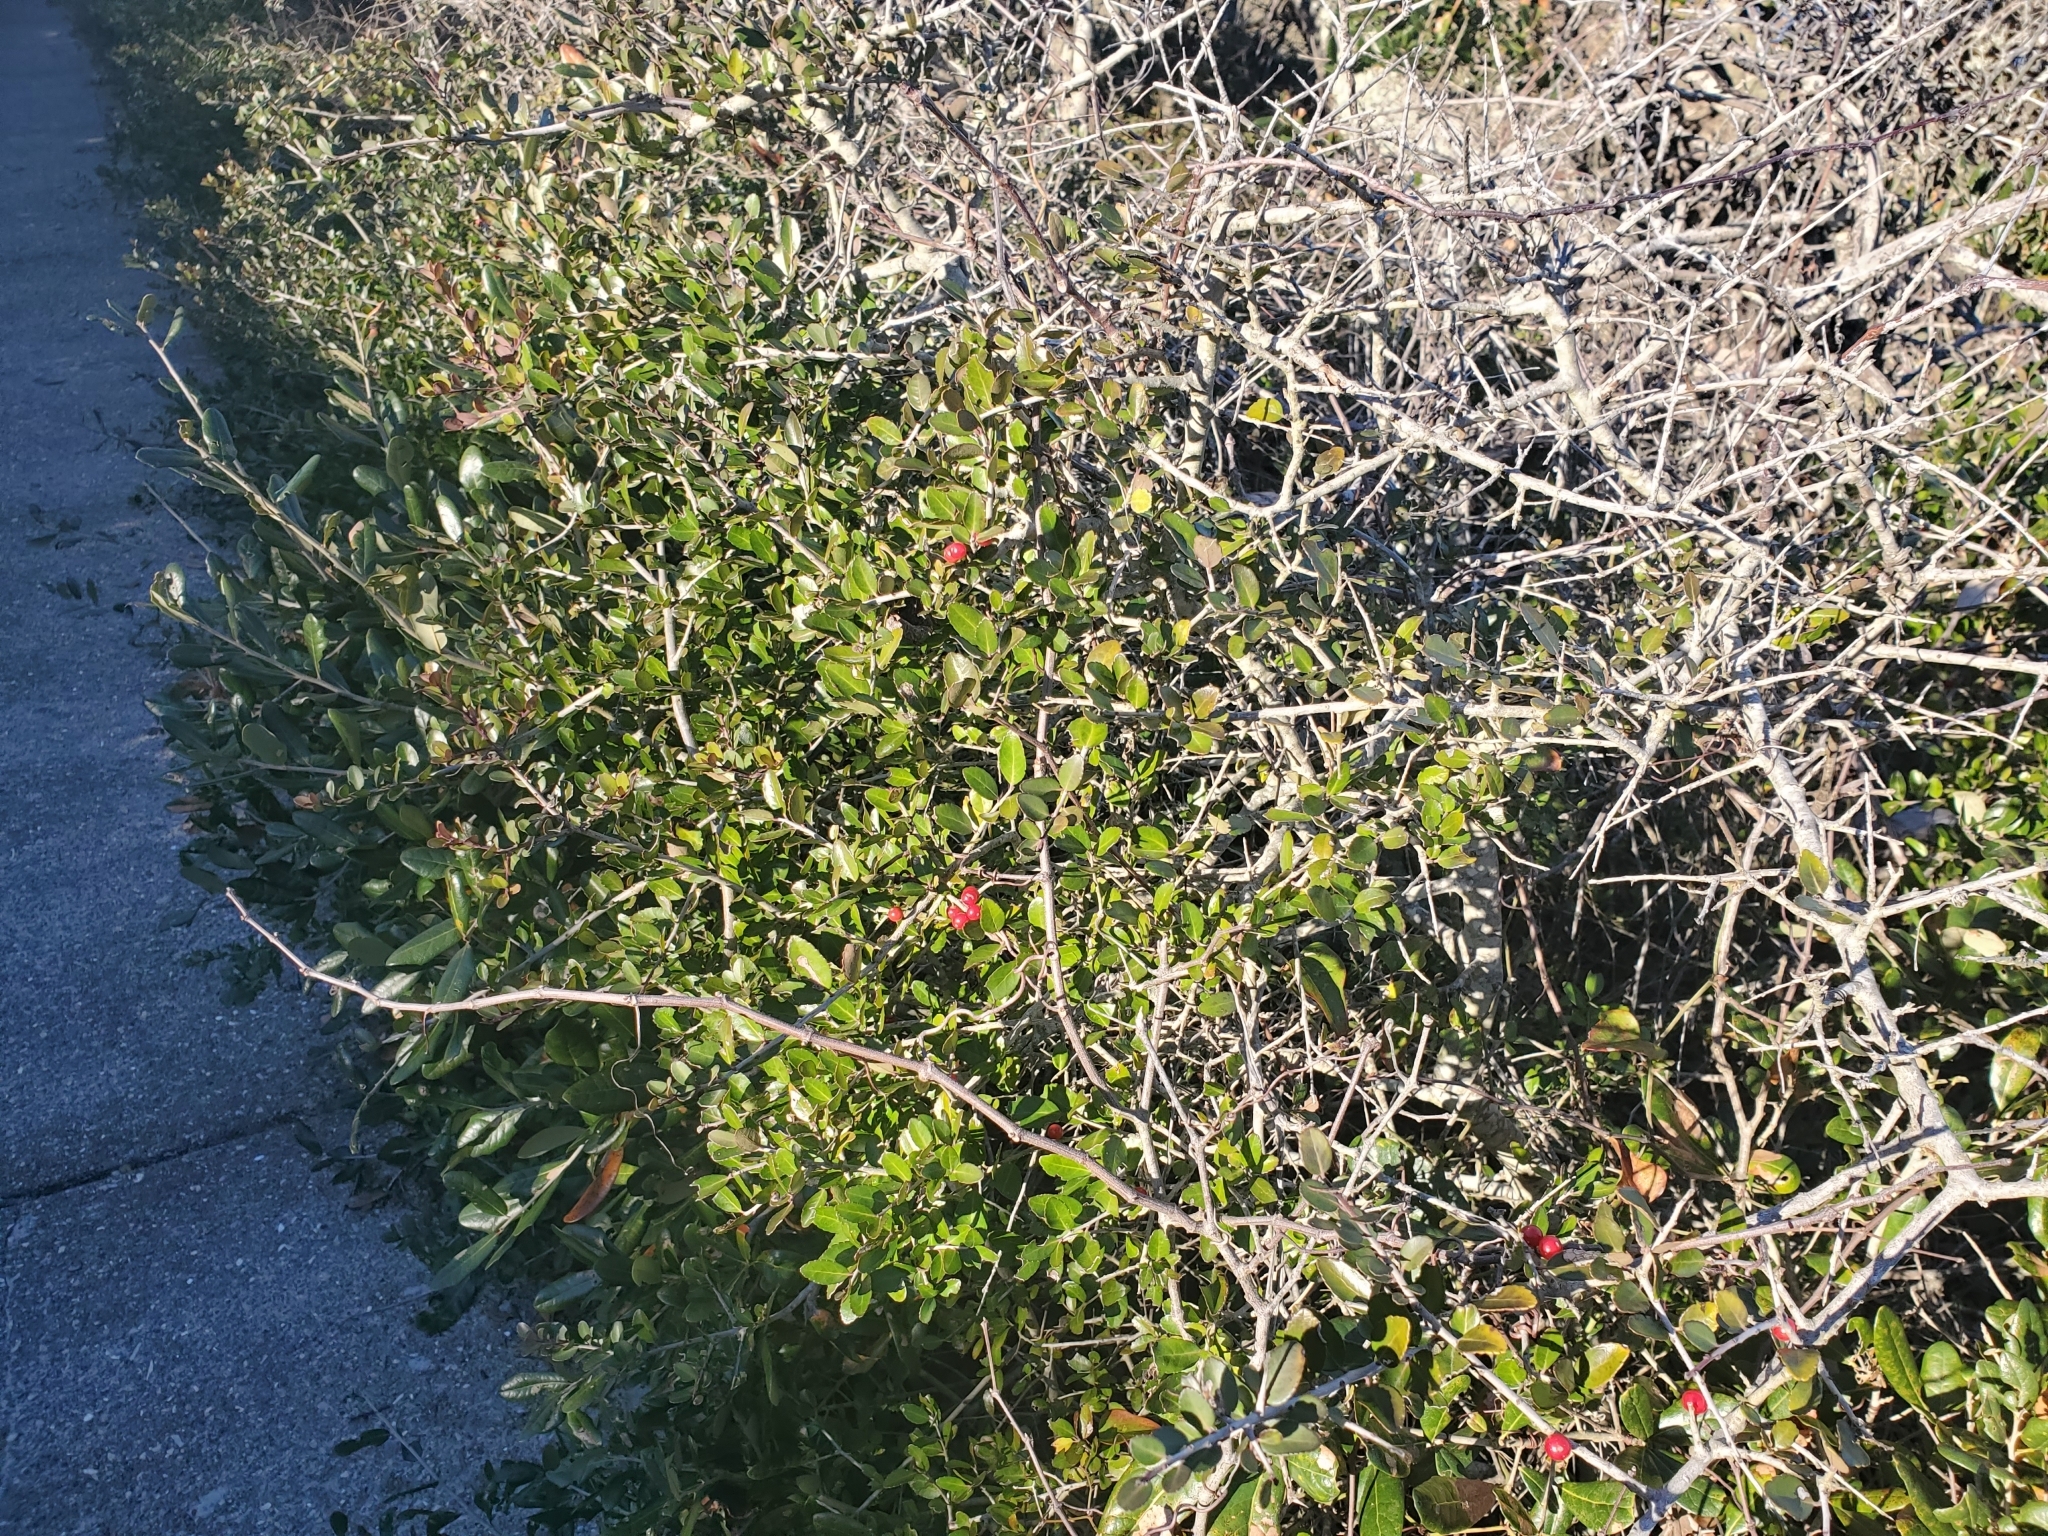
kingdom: Plantae
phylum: Tracheophyta
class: Magnoliopsida
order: Aquifoliales
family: Aquifoliaceae
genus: Ilex
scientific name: Ilex vomitoria
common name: Yaupon holly
